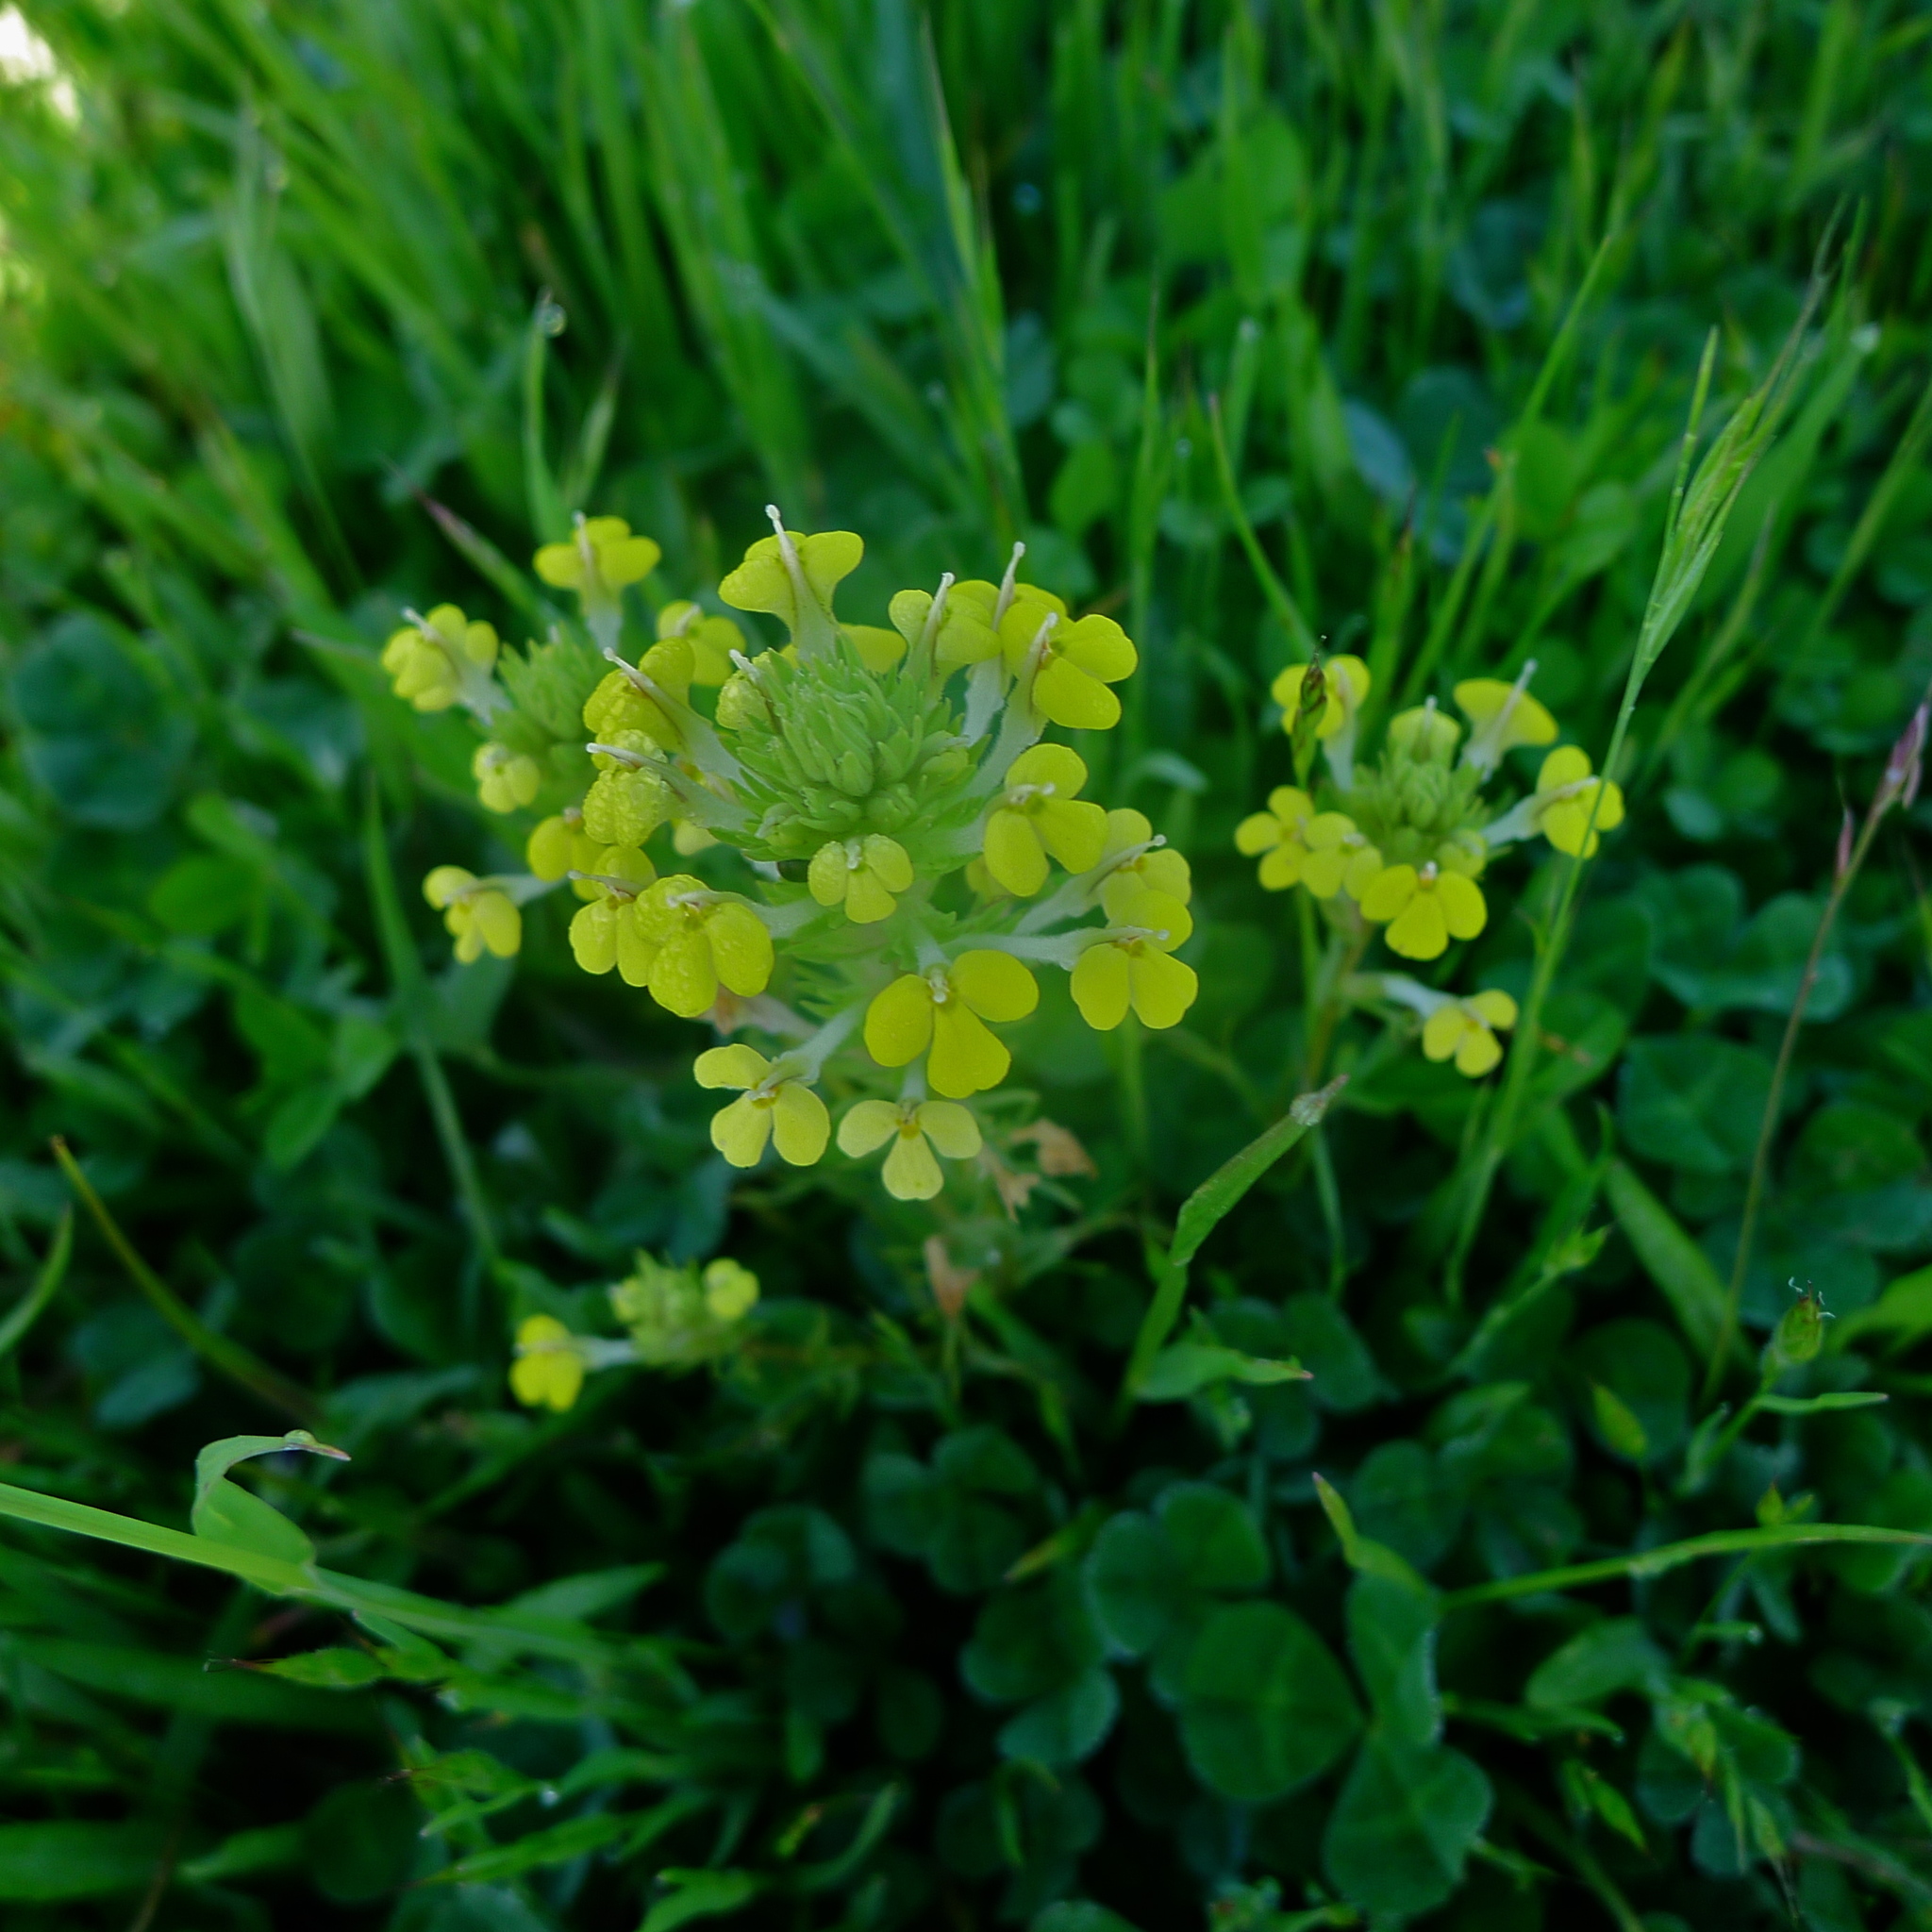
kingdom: Plantae
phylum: Tracheophyta
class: Magnoliopsida
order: Lamiales
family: Orobanchaceae
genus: Triphysaria
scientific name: Triphysaria versicolor
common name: Bearded false owl-clover
